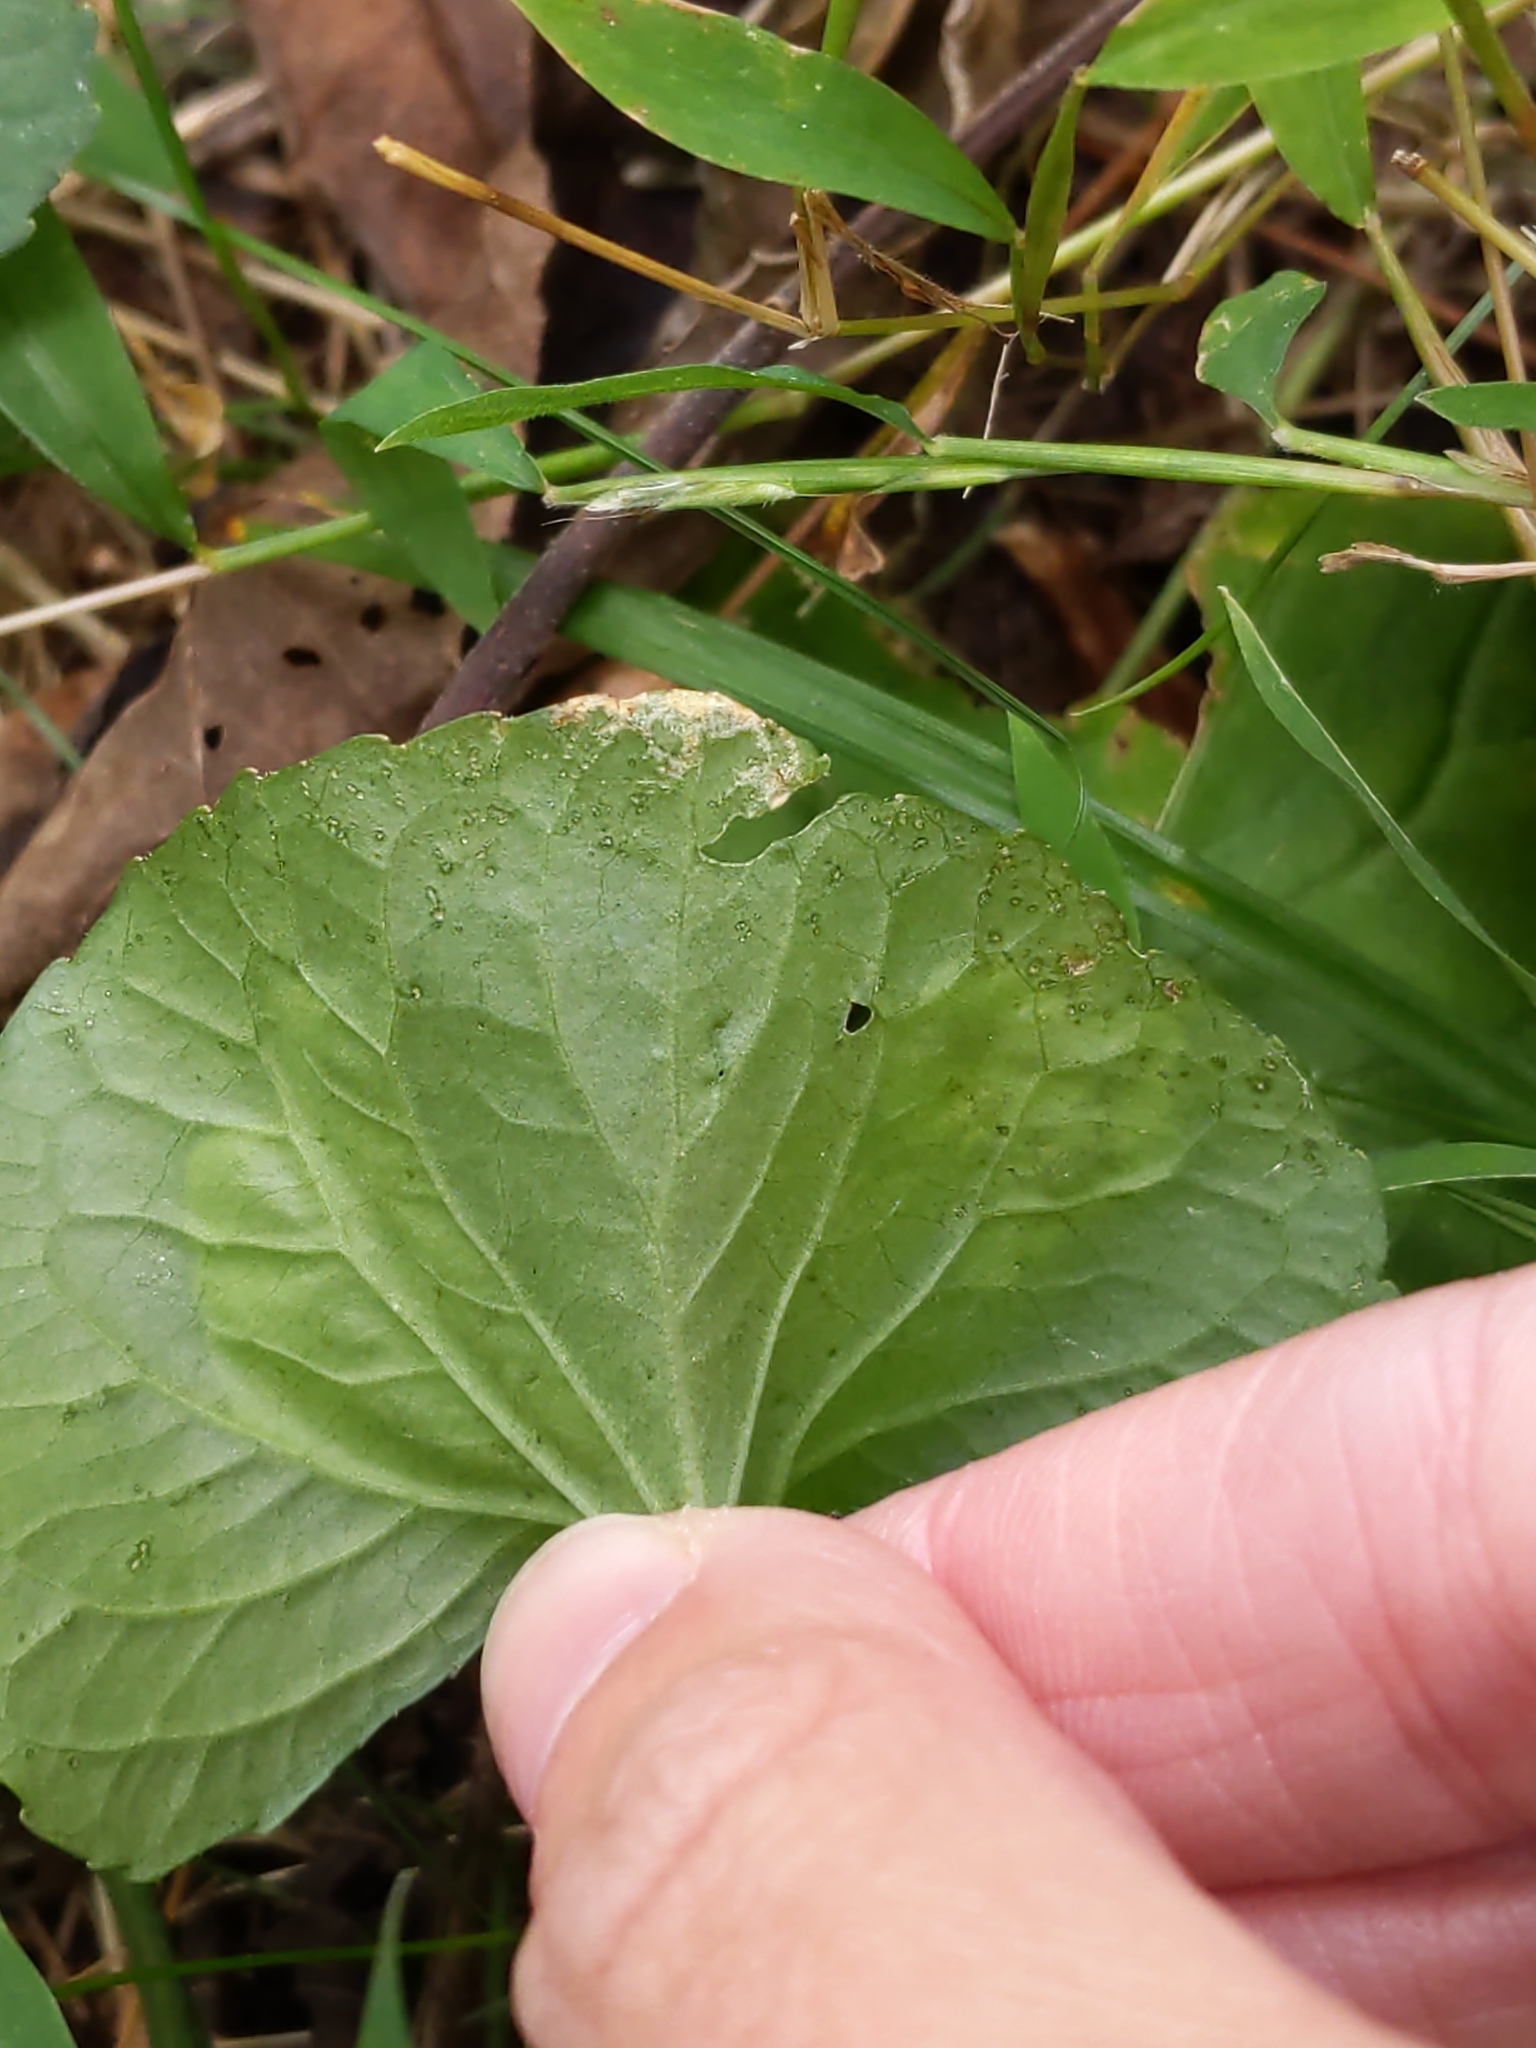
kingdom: Animalia
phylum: Arthropoda
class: Insecta
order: Diptera
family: Agromyzidae
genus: Liriomyza
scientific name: Liriomyza violivora
